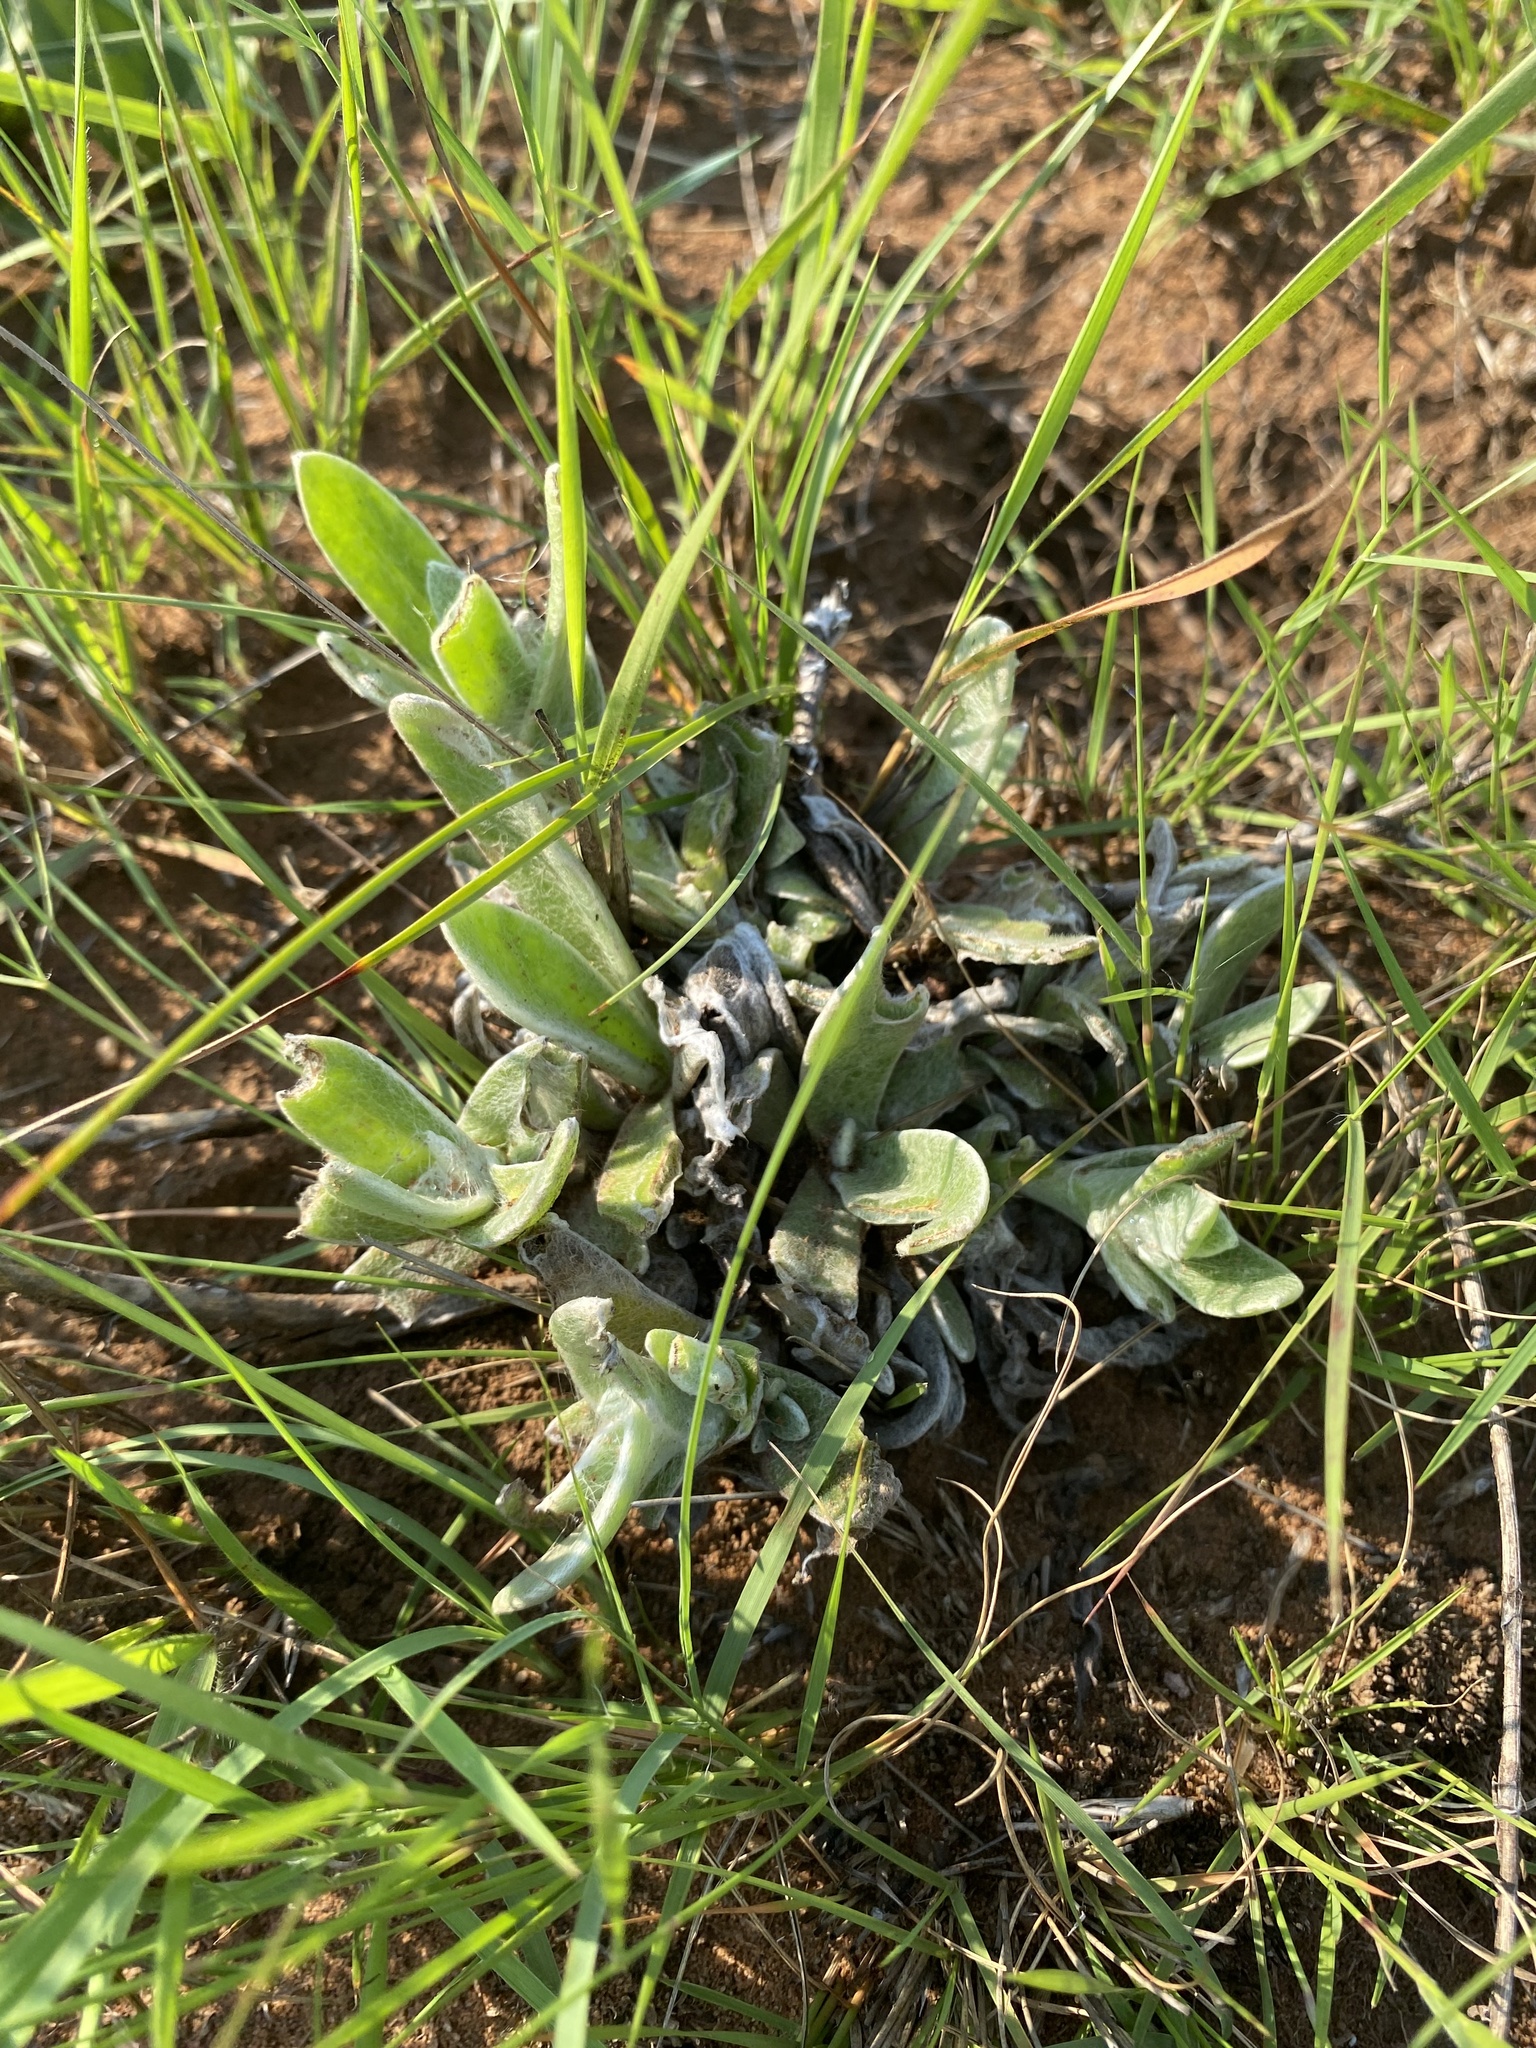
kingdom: Plantae
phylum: Tracheophyta
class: Magnoliopsida
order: Asterales
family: Asteraceae
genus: Helichrysum
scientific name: Helichrysum auriceps
